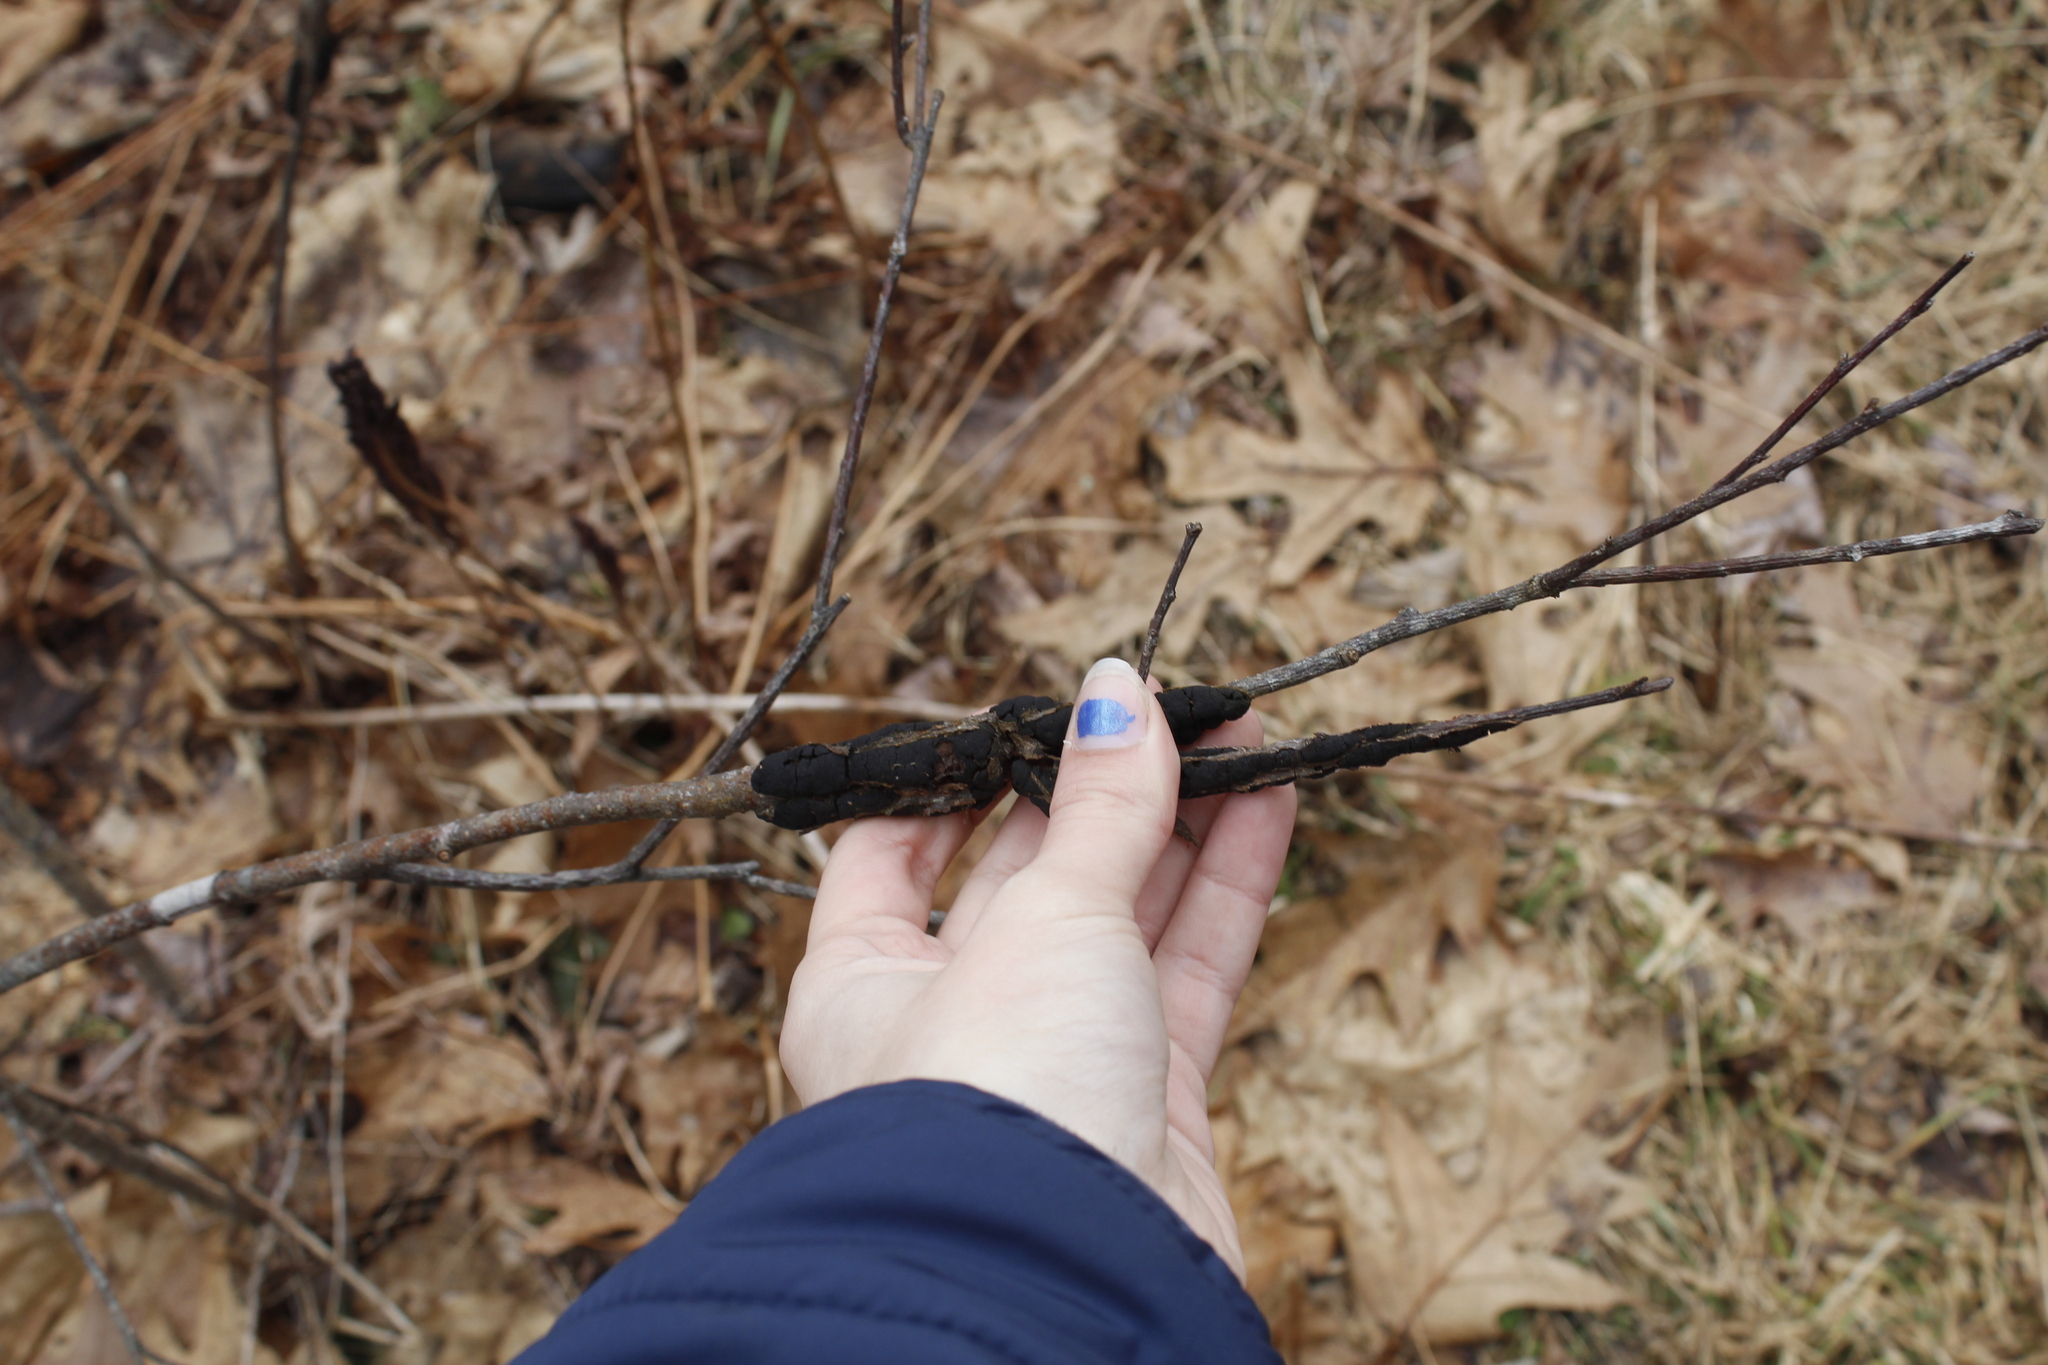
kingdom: Plantae
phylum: Tracheophyta
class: Magnoliopsida
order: Rosales
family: Rosaceae
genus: Prunus
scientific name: Prunus
